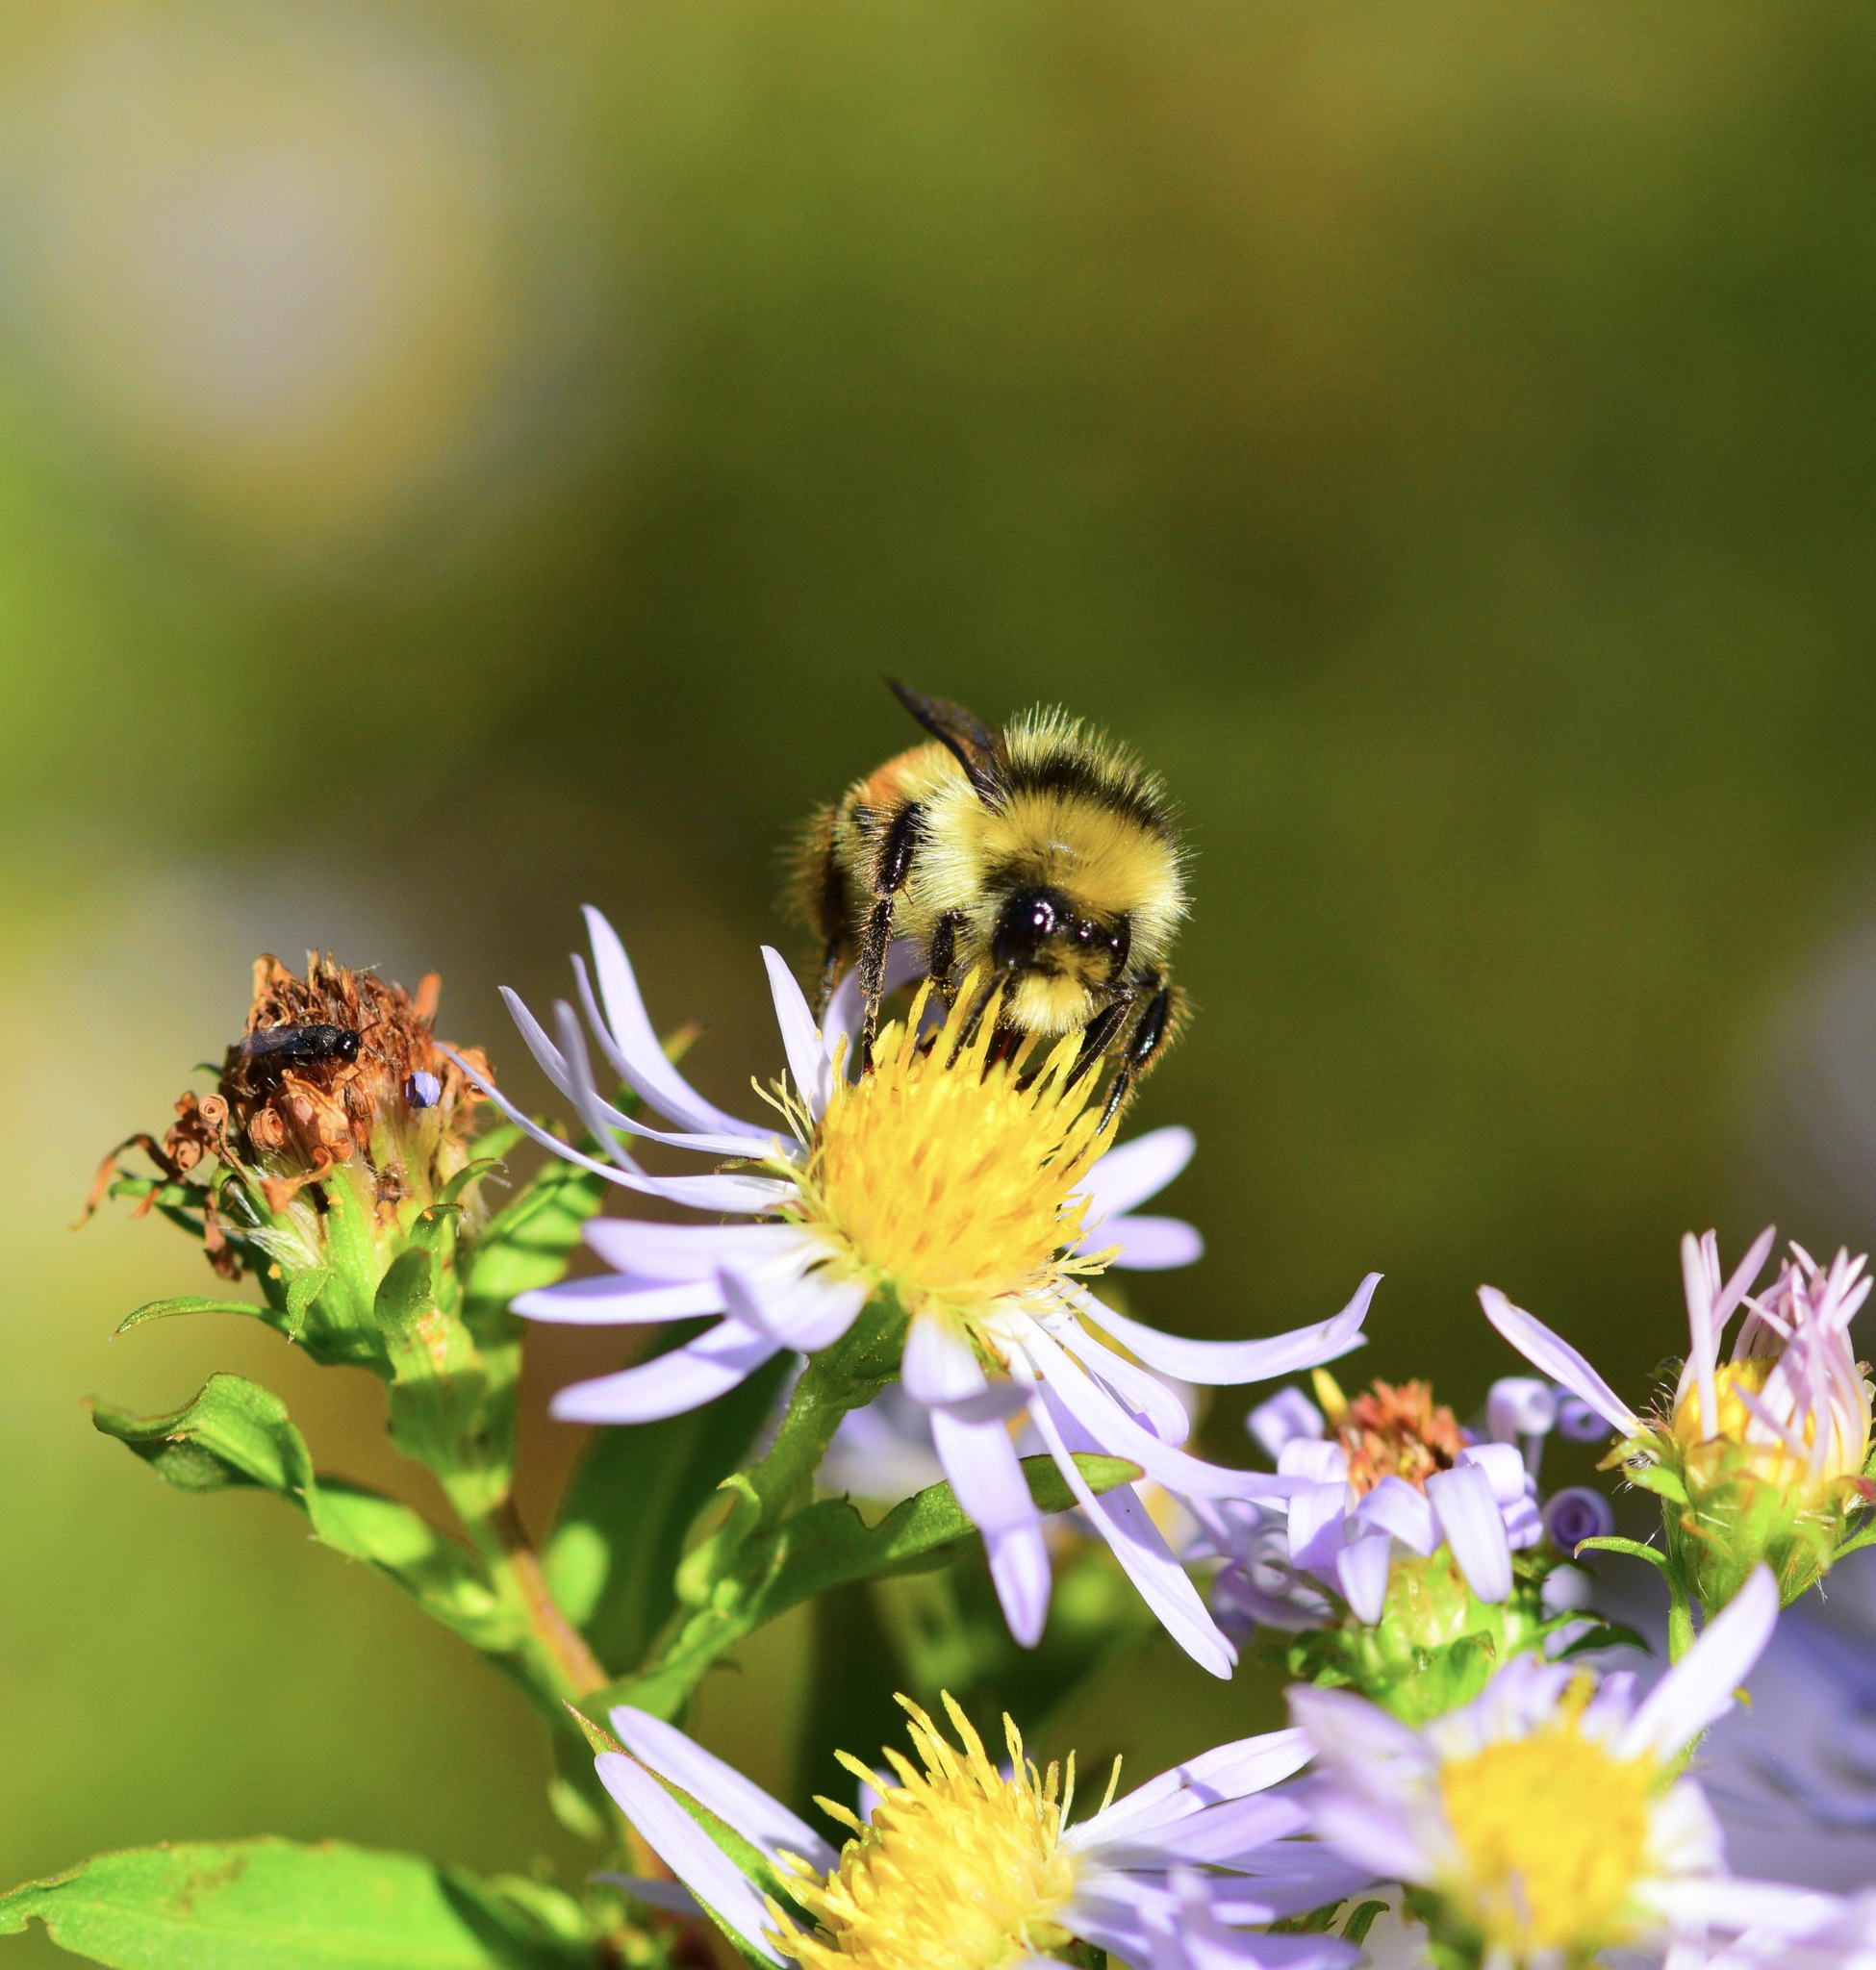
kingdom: Animalia
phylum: Arthropoda
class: Insecta
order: Hymenoptera
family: Apidae
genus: Bombus
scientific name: Bombus ternarius
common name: Tri-colored bumble bee
